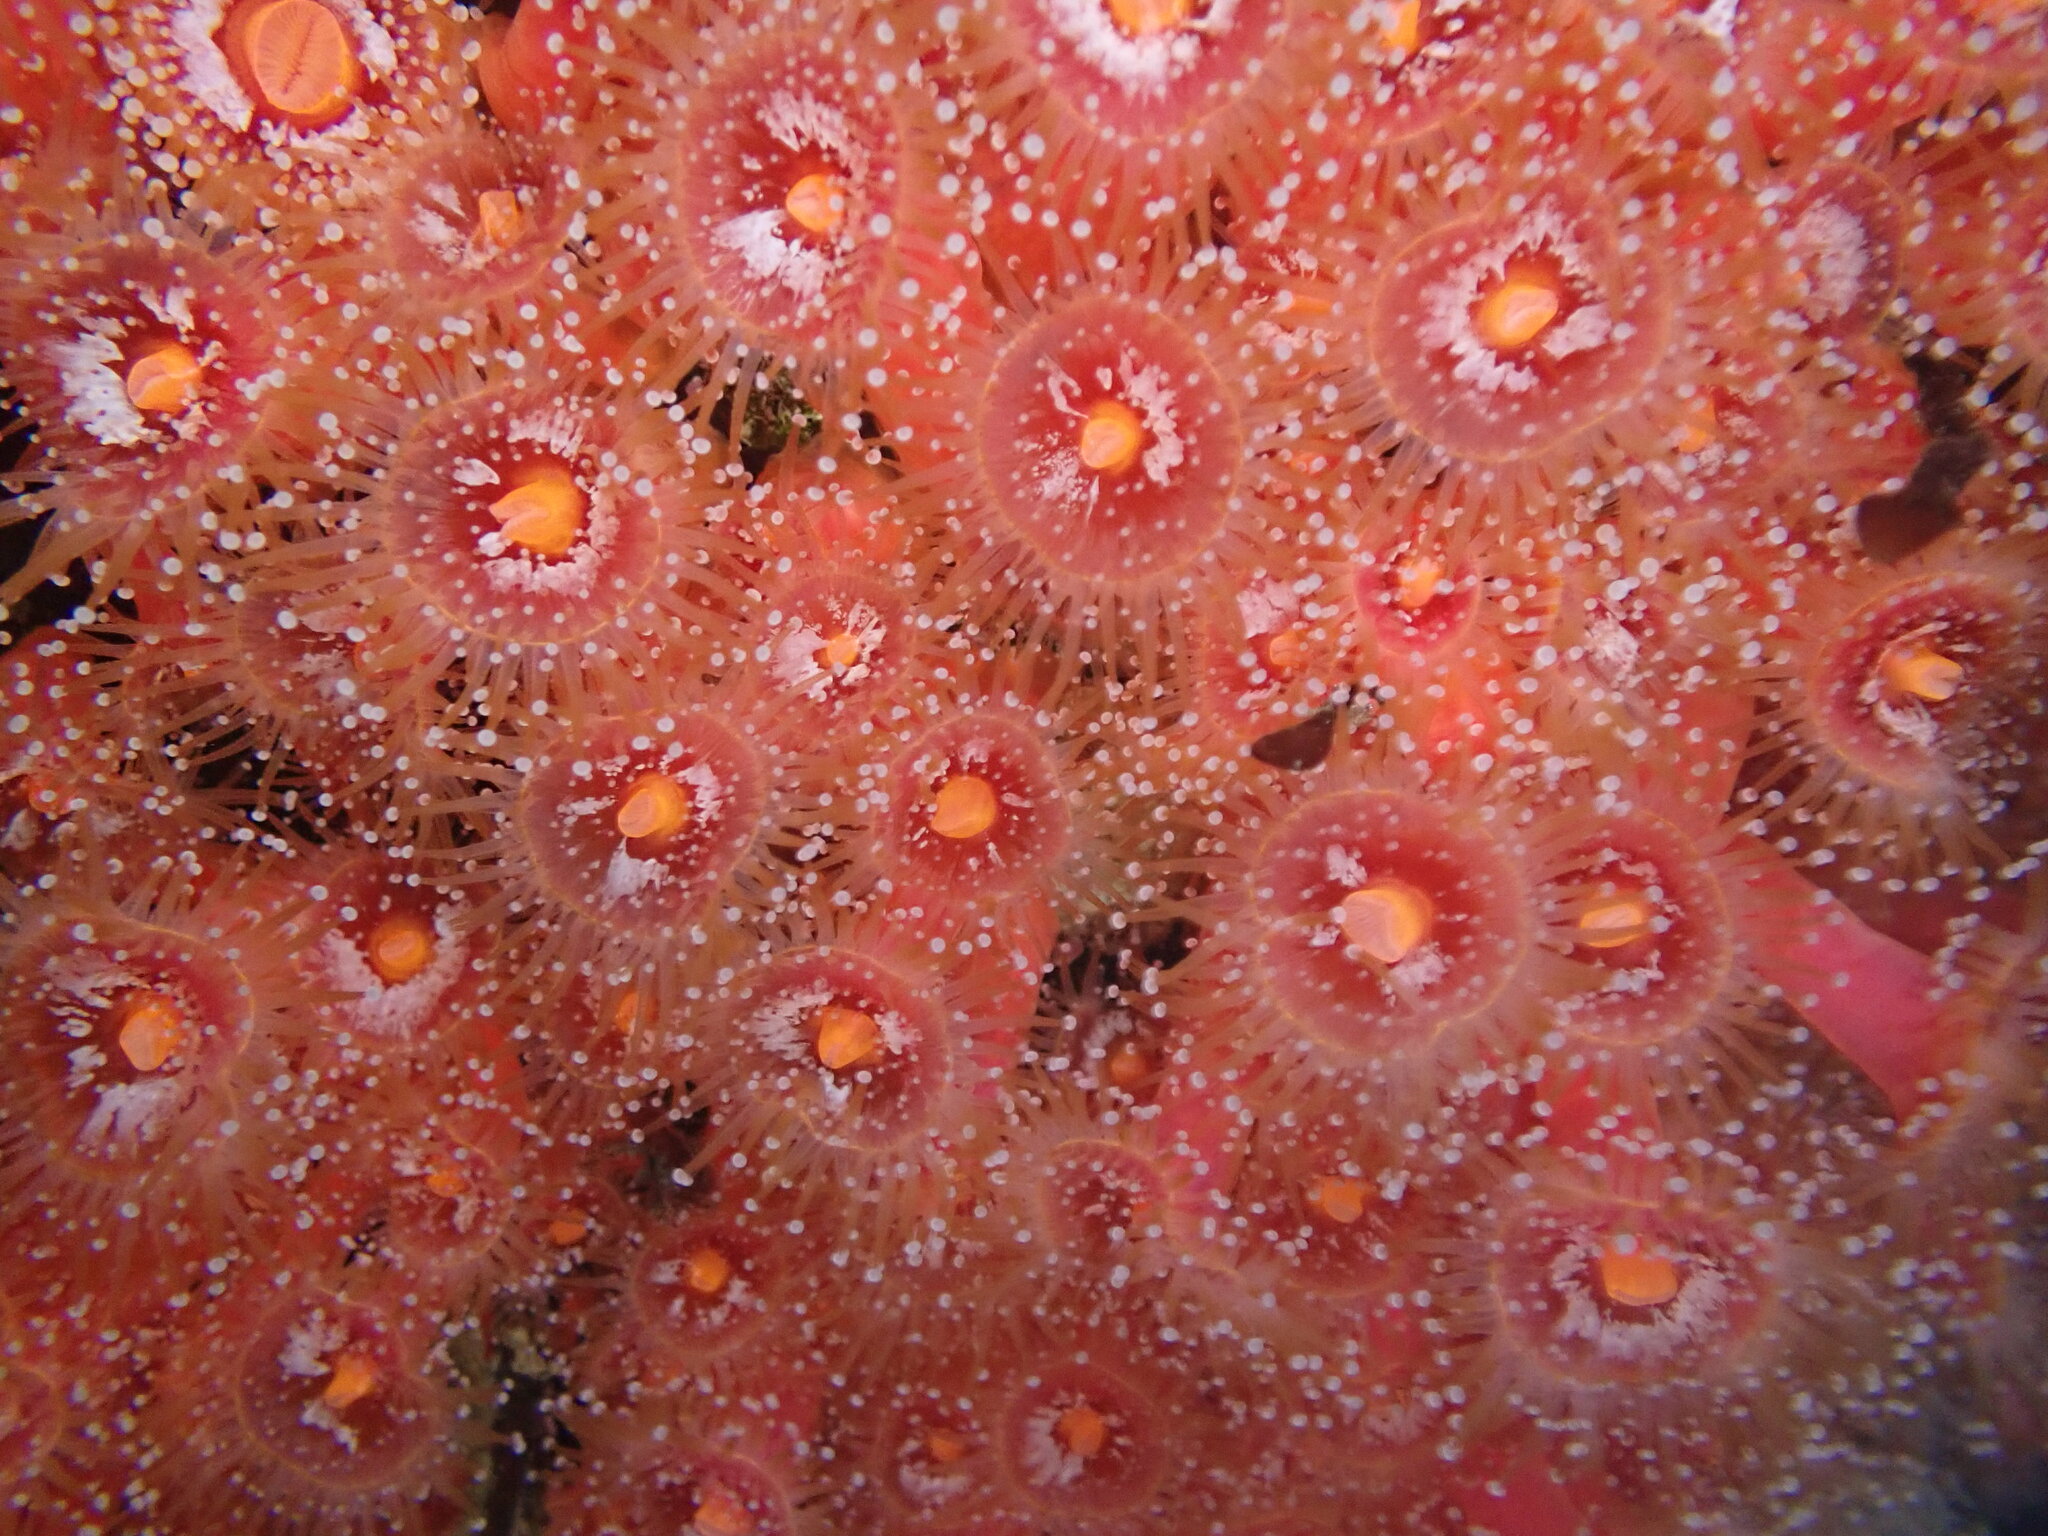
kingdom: Animalia
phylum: Cnidaria
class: Anthozoa
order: Corallimorpharia
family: Corallimorphidae
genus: Corynactis
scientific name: Corynactis californica
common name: Strawberry corallimorpharian
